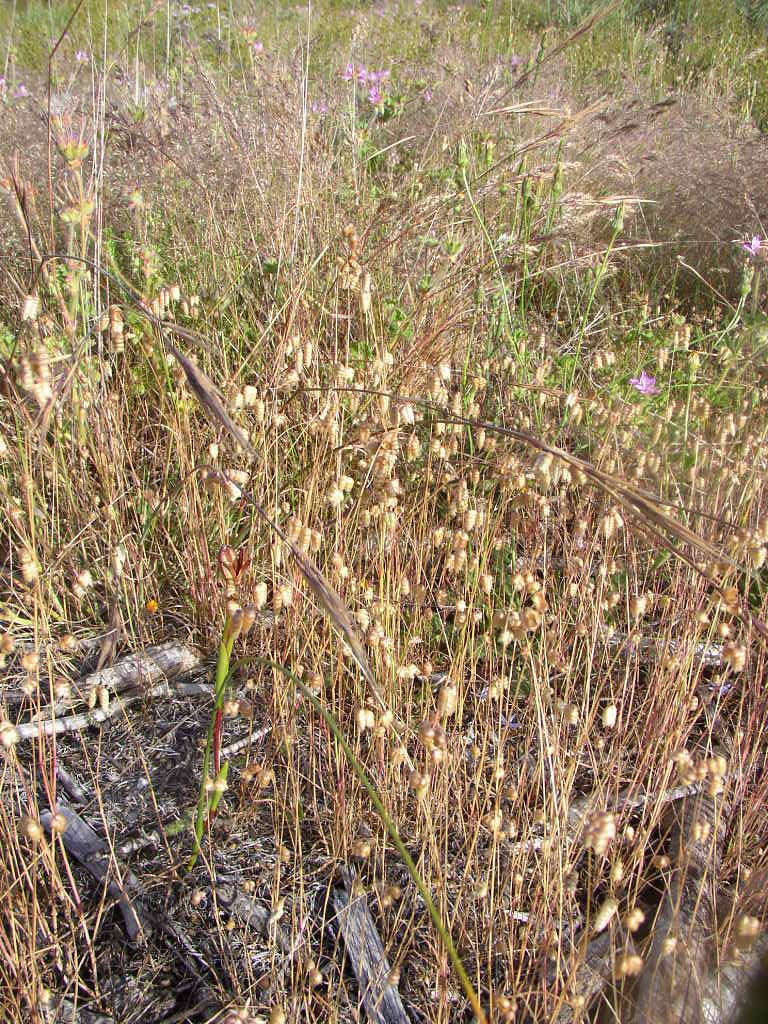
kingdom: Plantae
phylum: Tracheophyta
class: Liliopsida
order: Poales
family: Poaceae
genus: Briza
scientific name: Briza maxima
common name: Big quakinggrass
